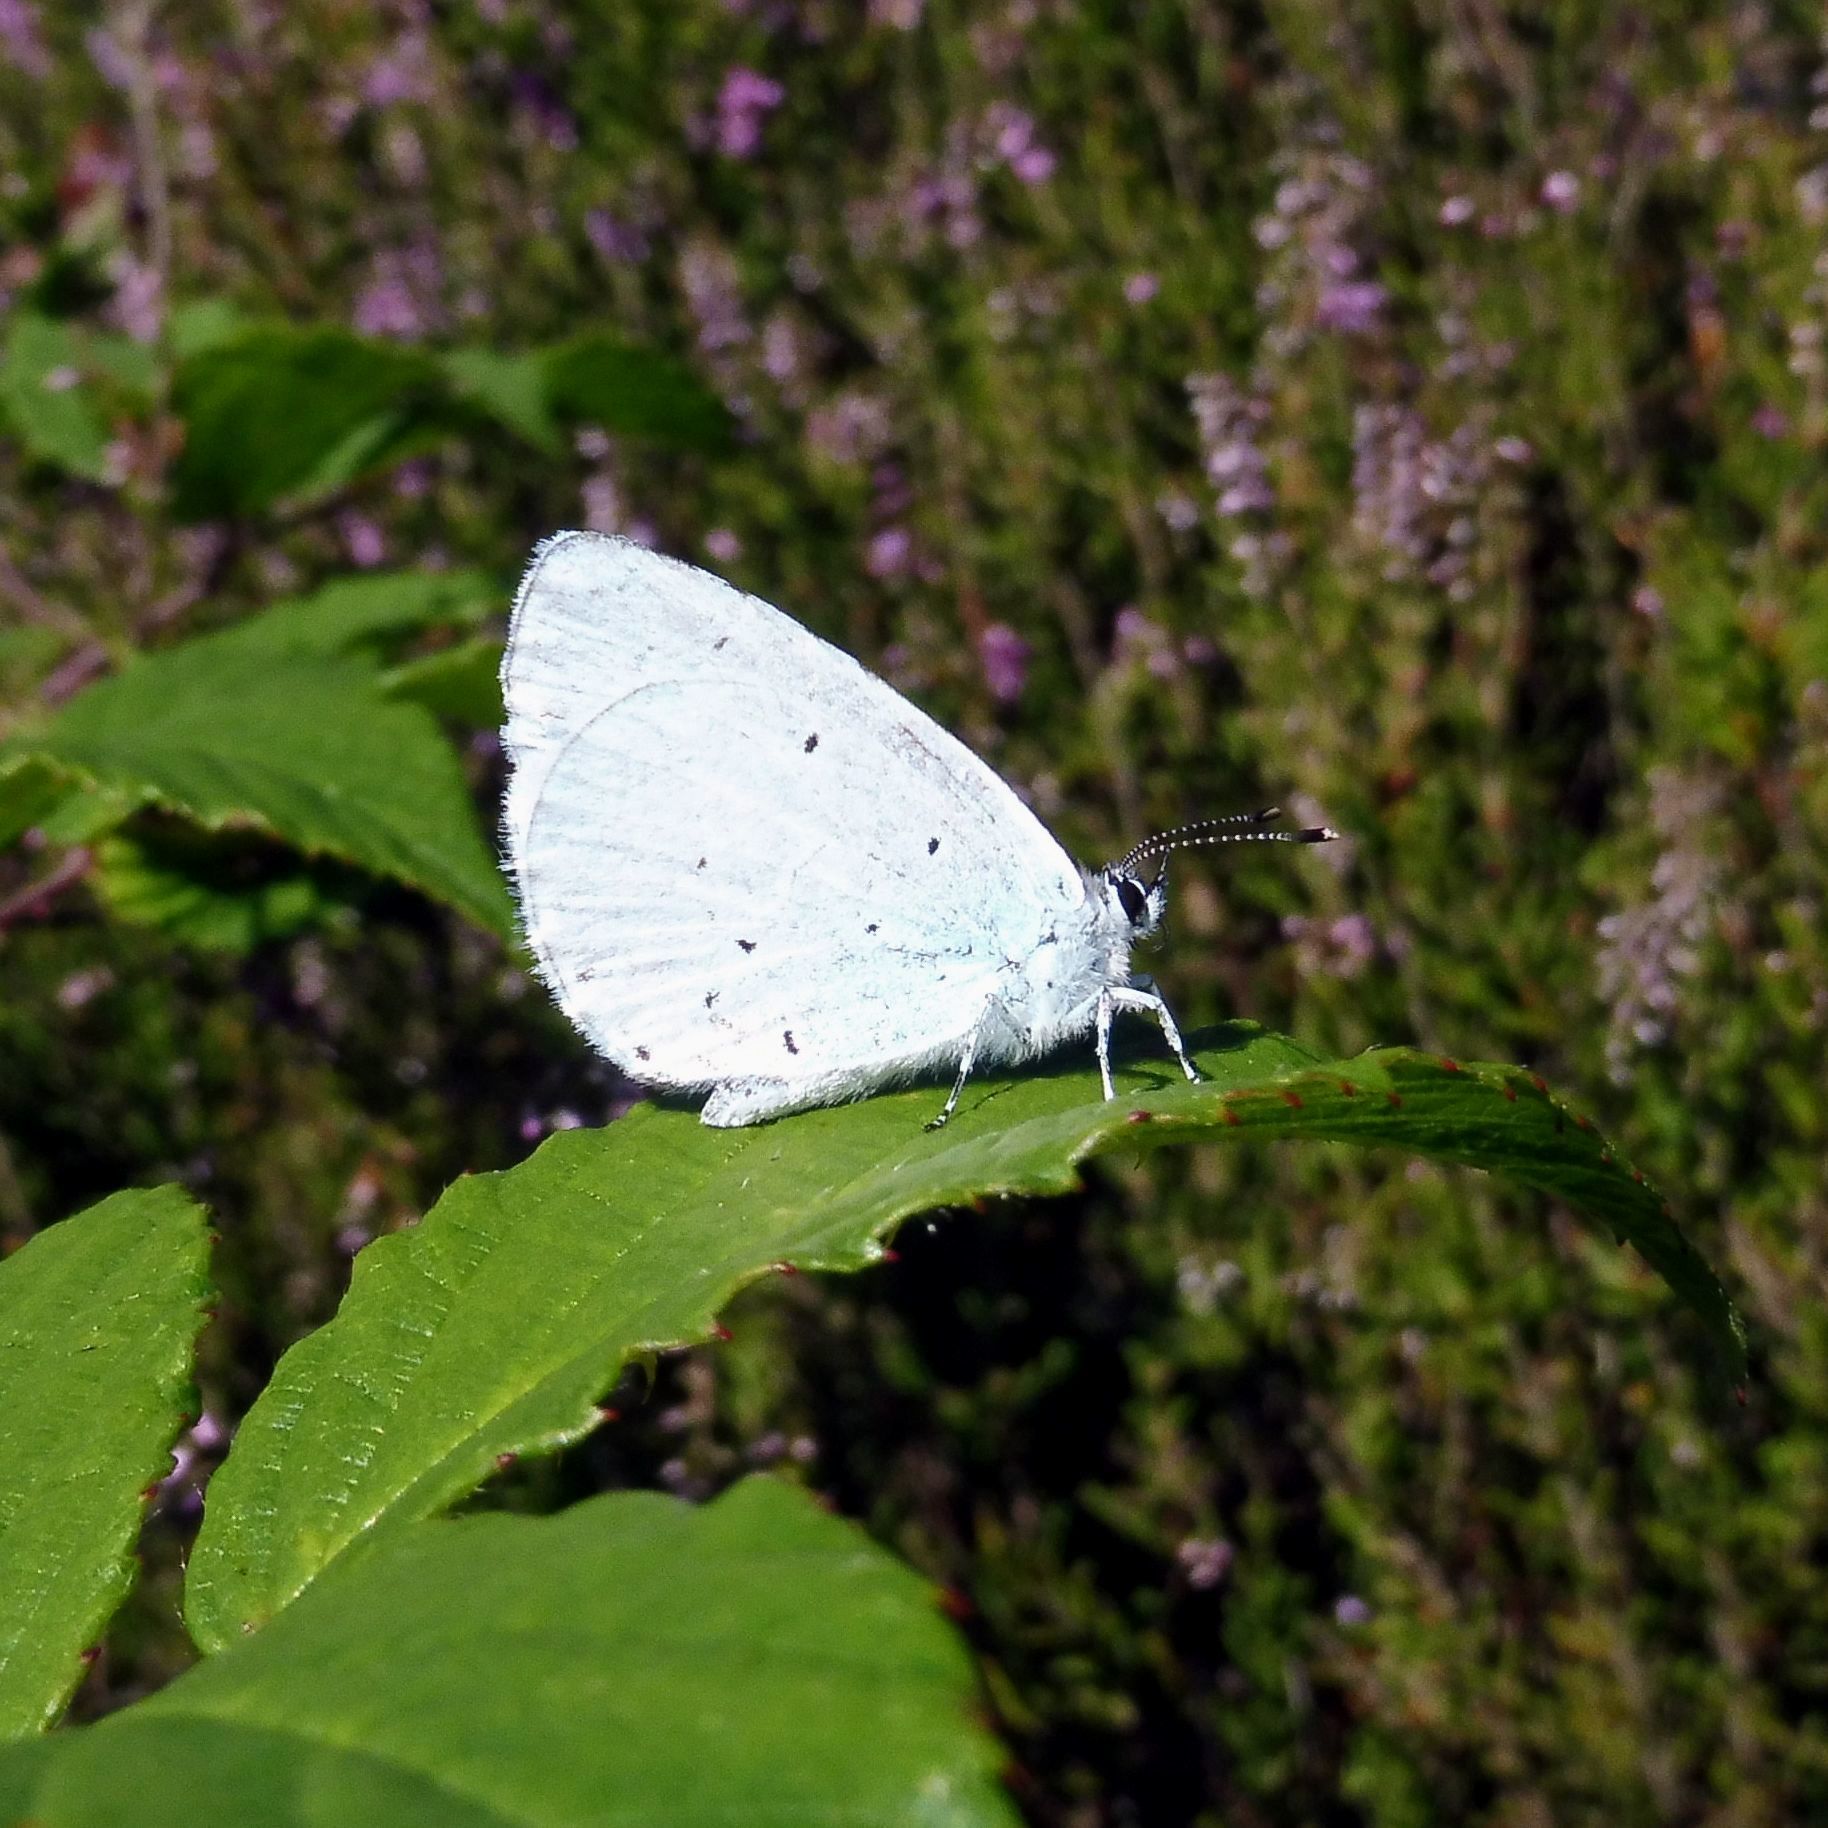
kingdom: Animalia
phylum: Arthropoda
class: Insecta
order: Lepidoptera
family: Lycaenidae
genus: Celastrina
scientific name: Celastrina argiolus
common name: Holly blue
